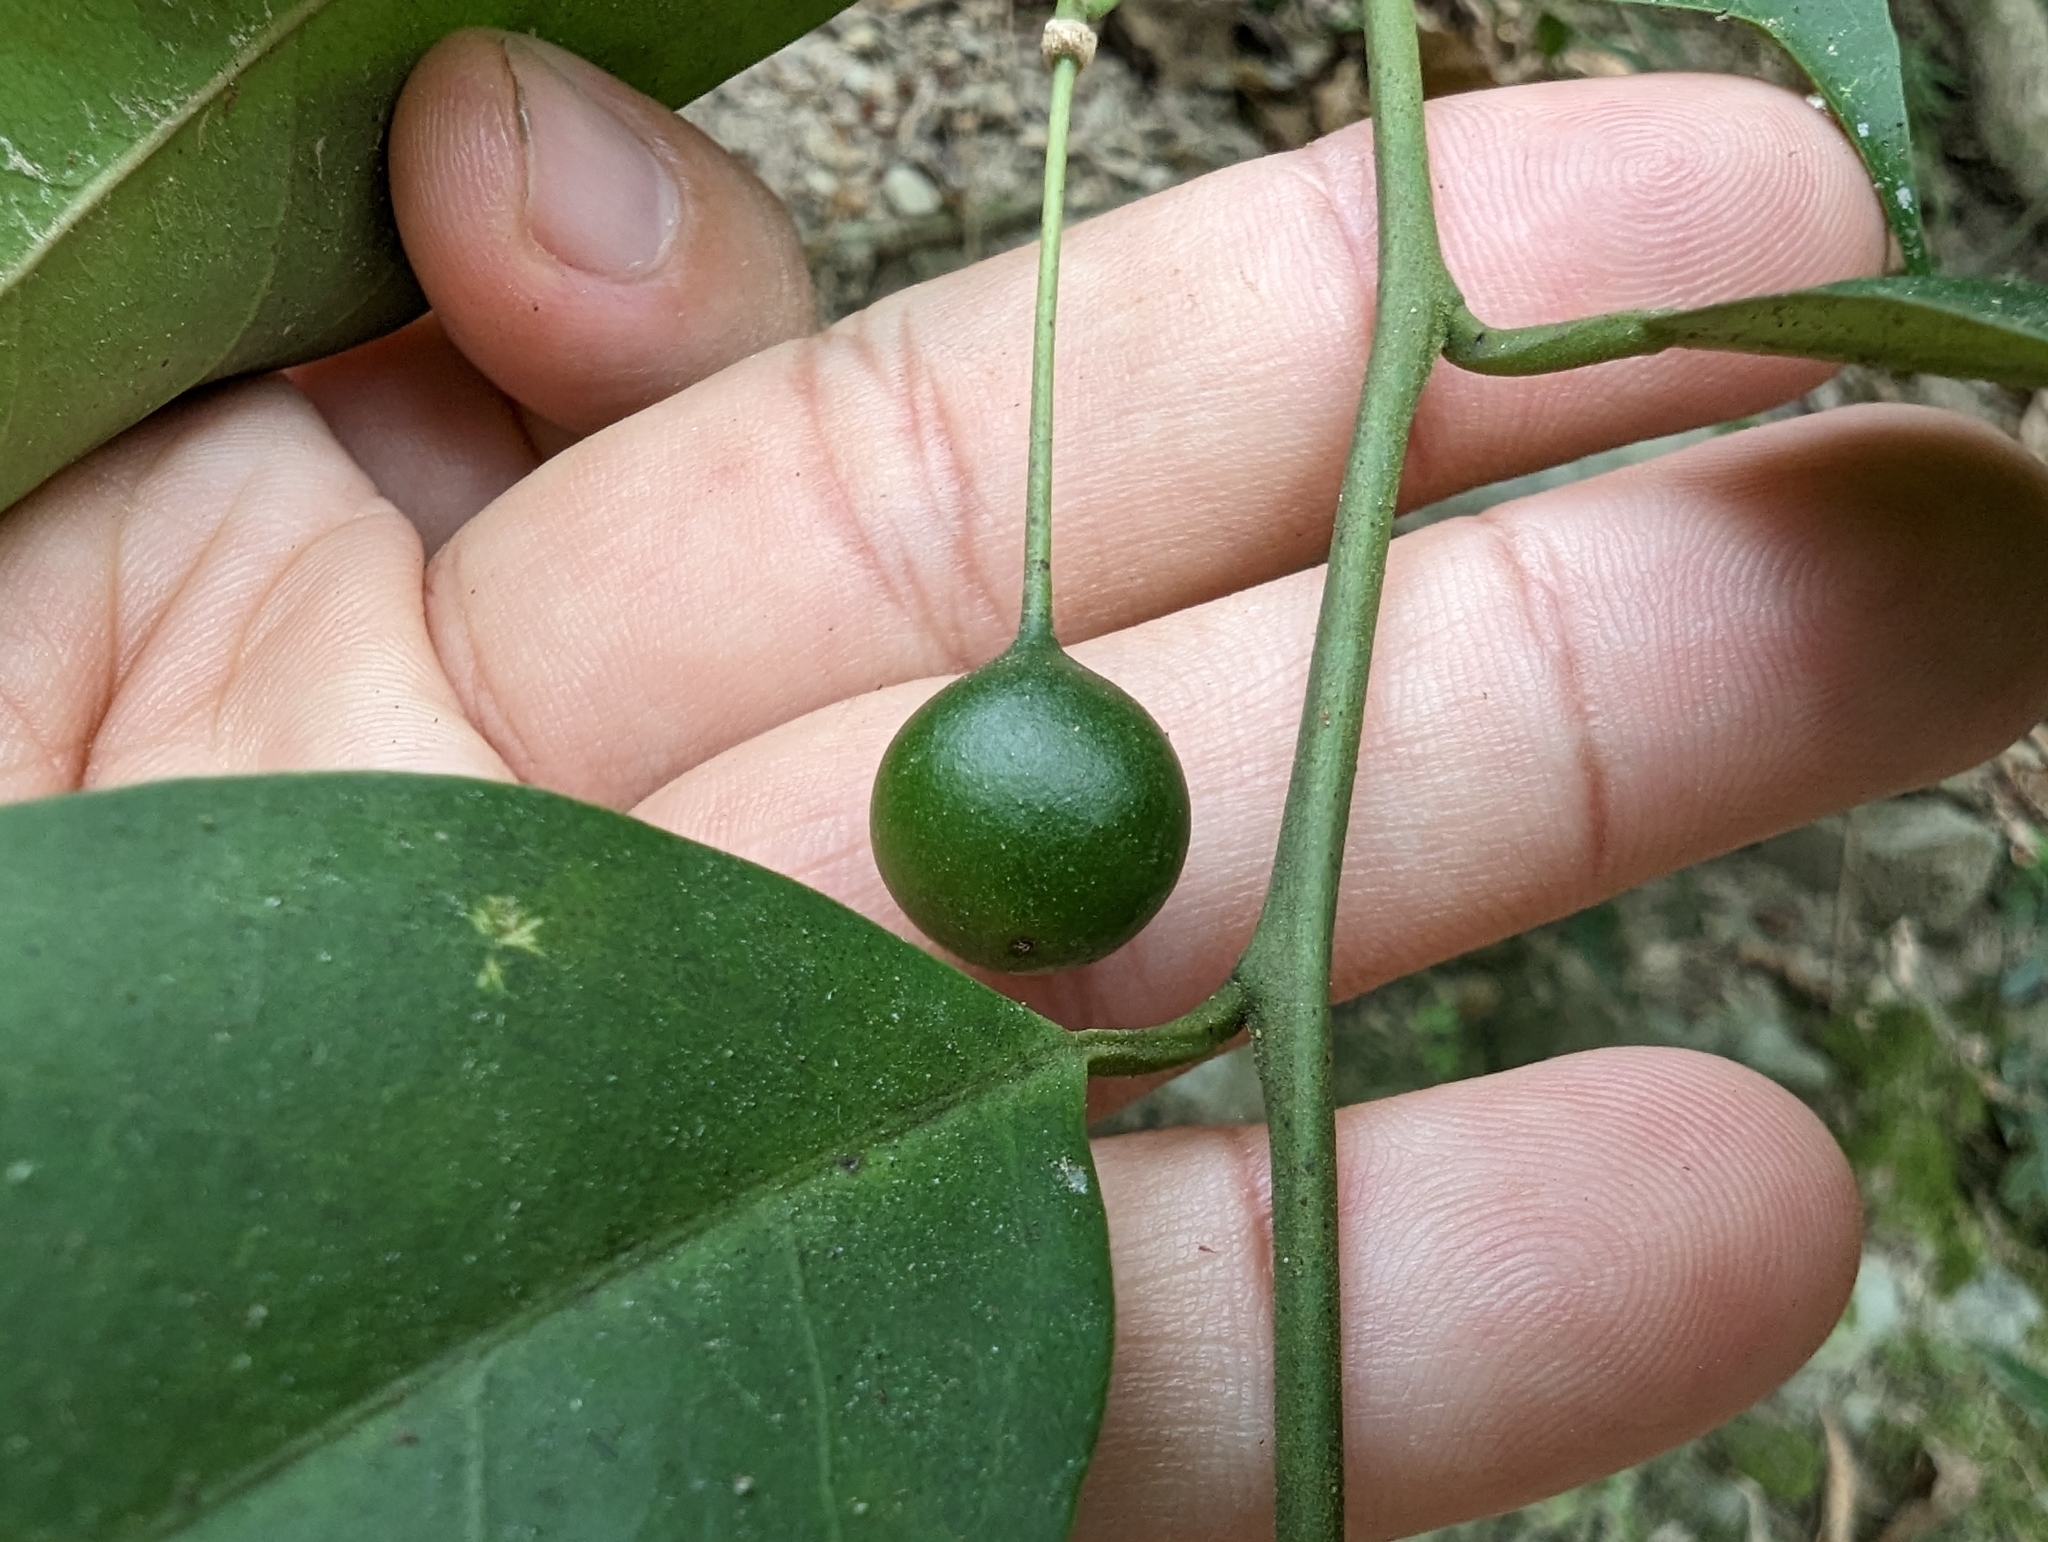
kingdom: Plantae
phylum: Tracheophyta
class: Magnoliopsida
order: Brassicales
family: Capparaceae
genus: Capparis
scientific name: Capparis sabiifolia
